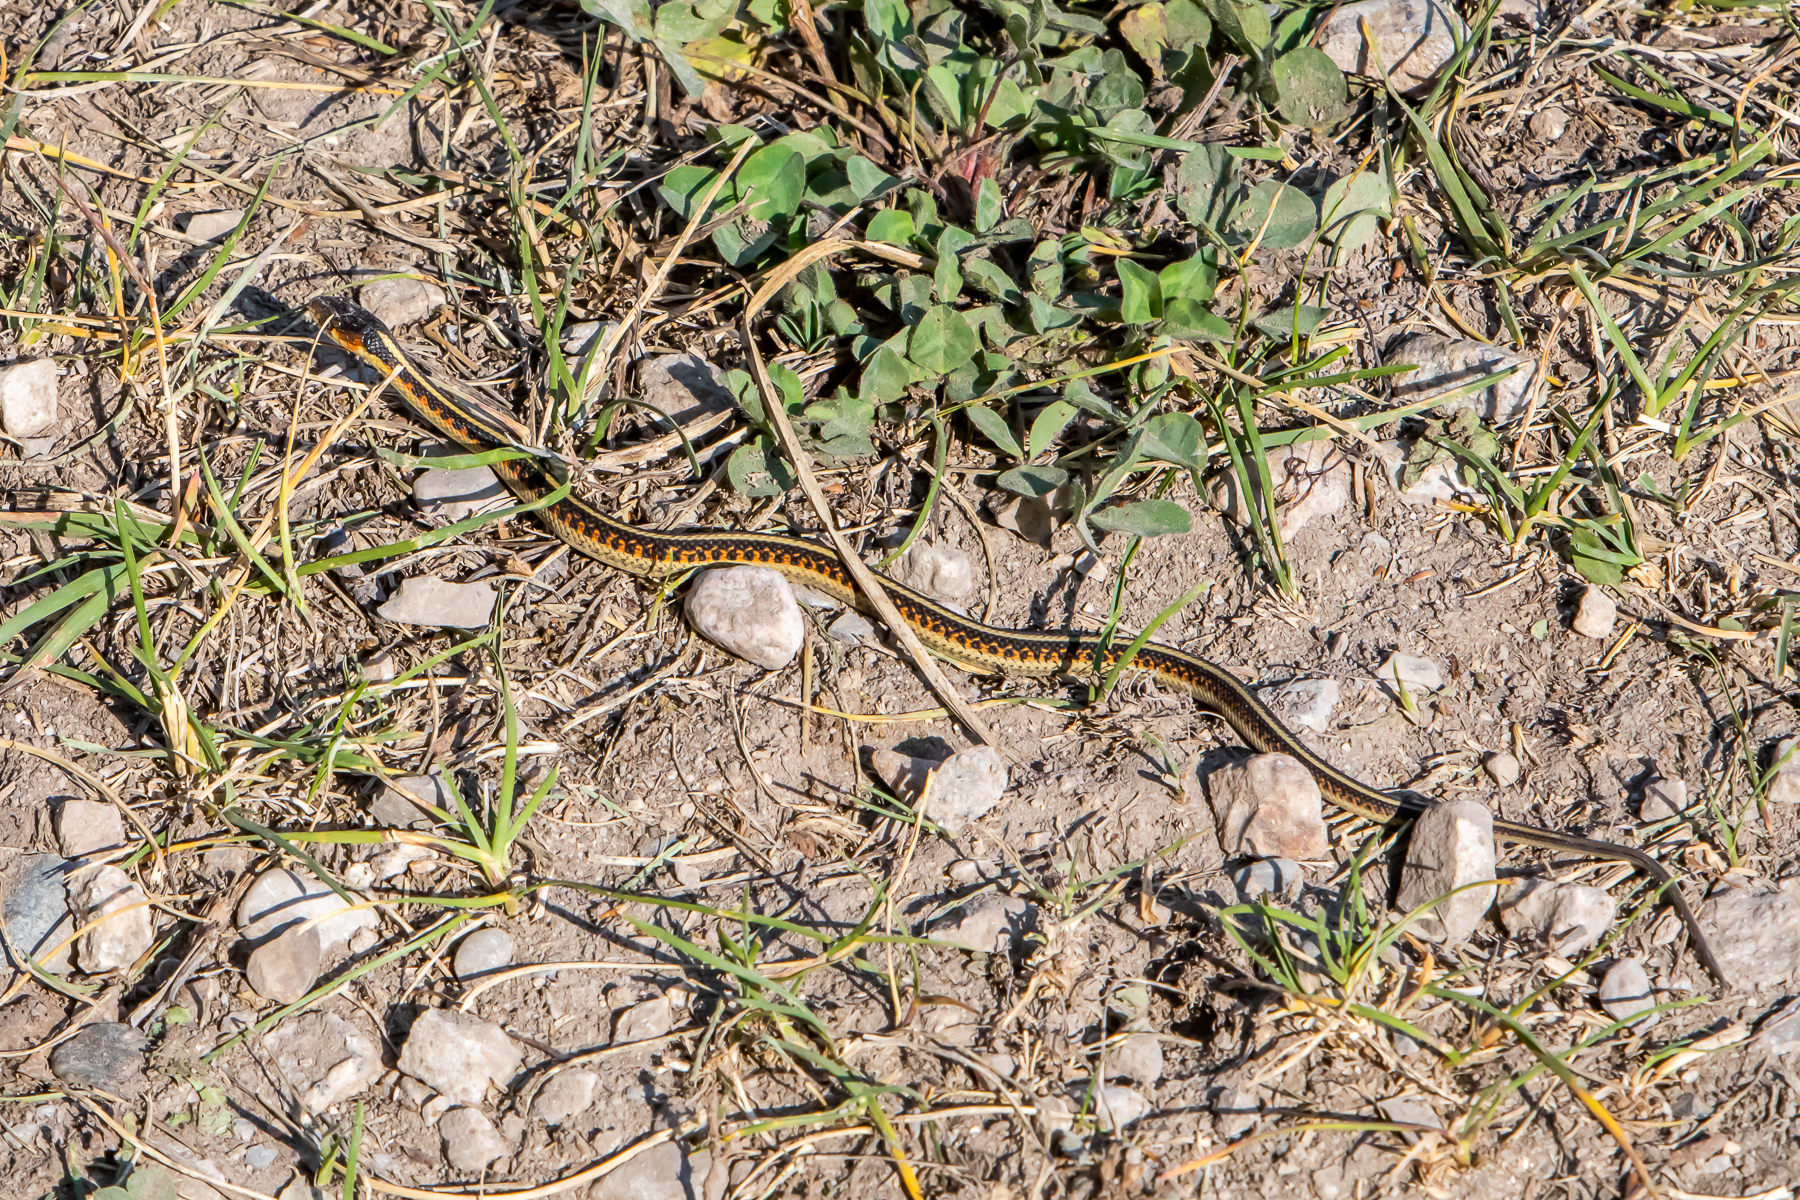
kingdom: Animalia
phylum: Chordata
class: Squamata
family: Colubridae
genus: Thamnophis
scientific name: Thamnophis sirtalis
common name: Common garter snake
